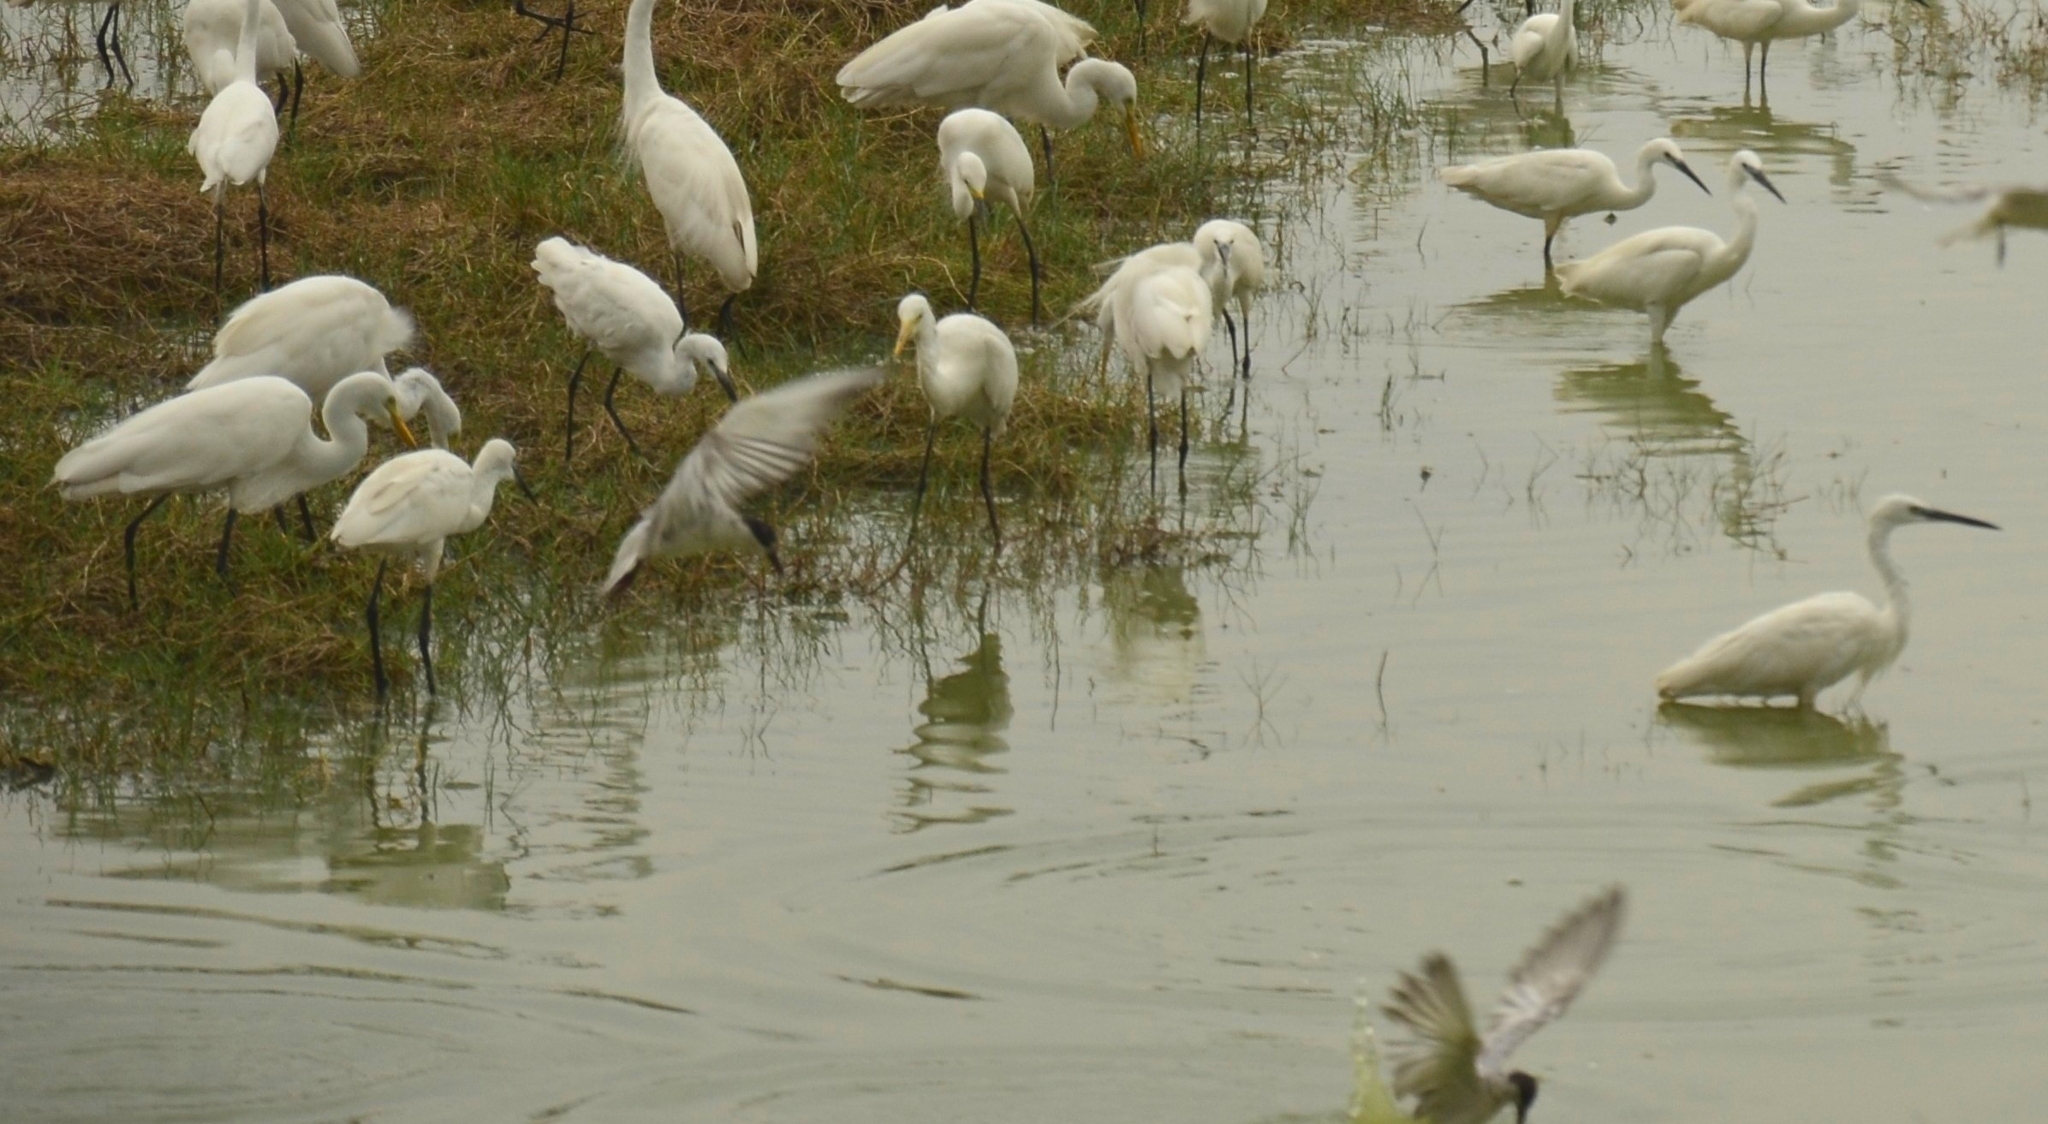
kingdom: Animalia
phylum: Chordata
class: Aves
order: Pelecaniformes
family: Ardeidae
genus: Egretta
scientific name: Egretta garzetta
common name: Little egret
